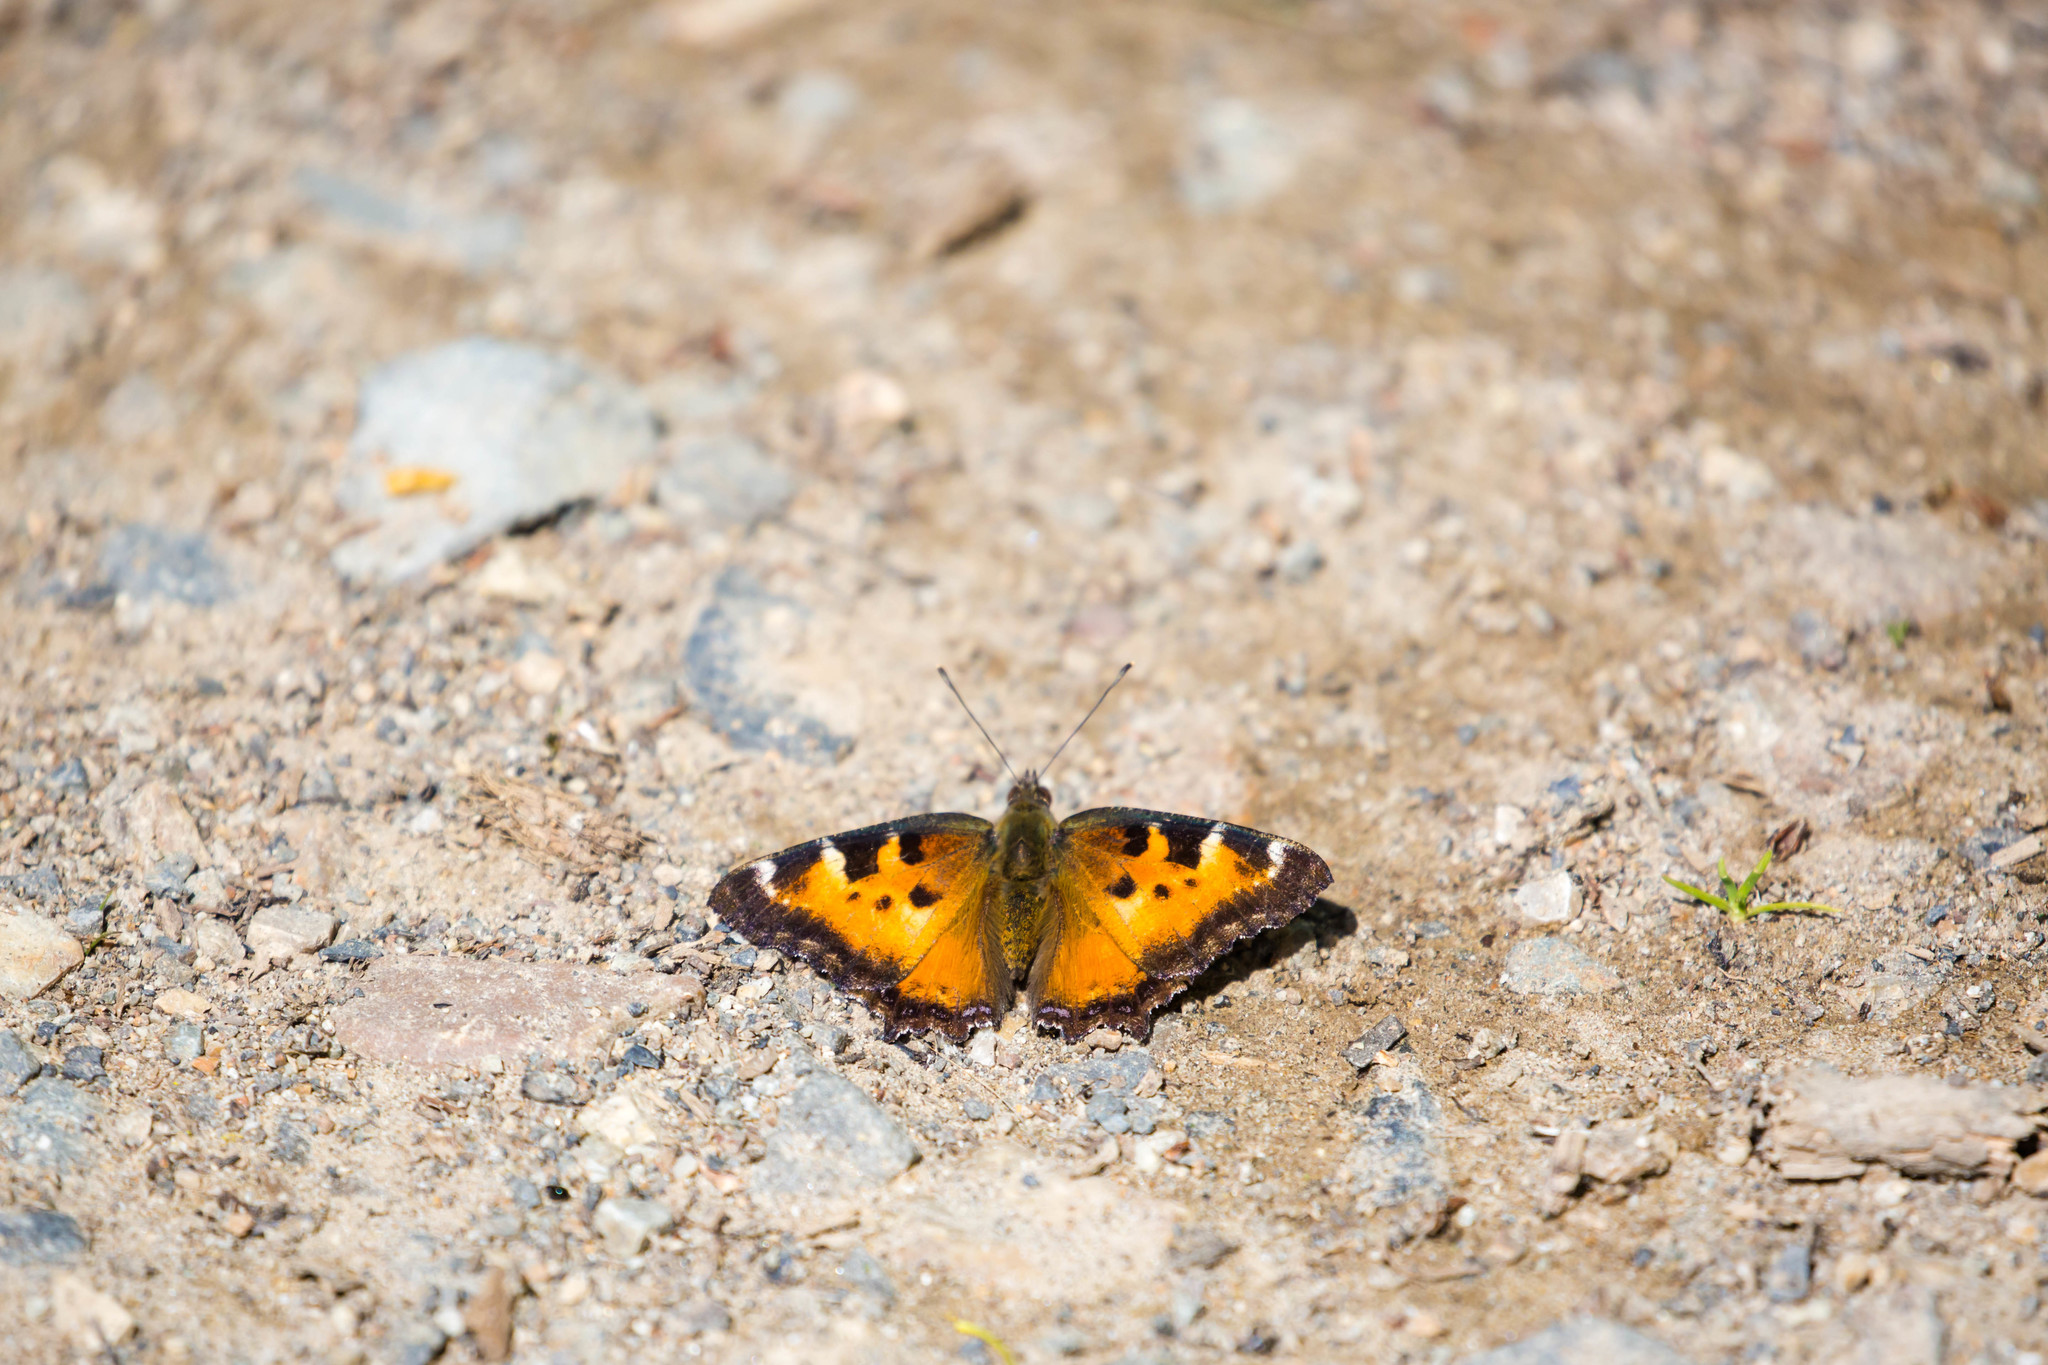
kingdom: Animalia
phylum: Arthropoda
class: Insecta
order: Lepidoptera
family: Nymphalidae
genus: Nymphalis
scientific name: Nymphalis californica
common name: California tortoiseshell
